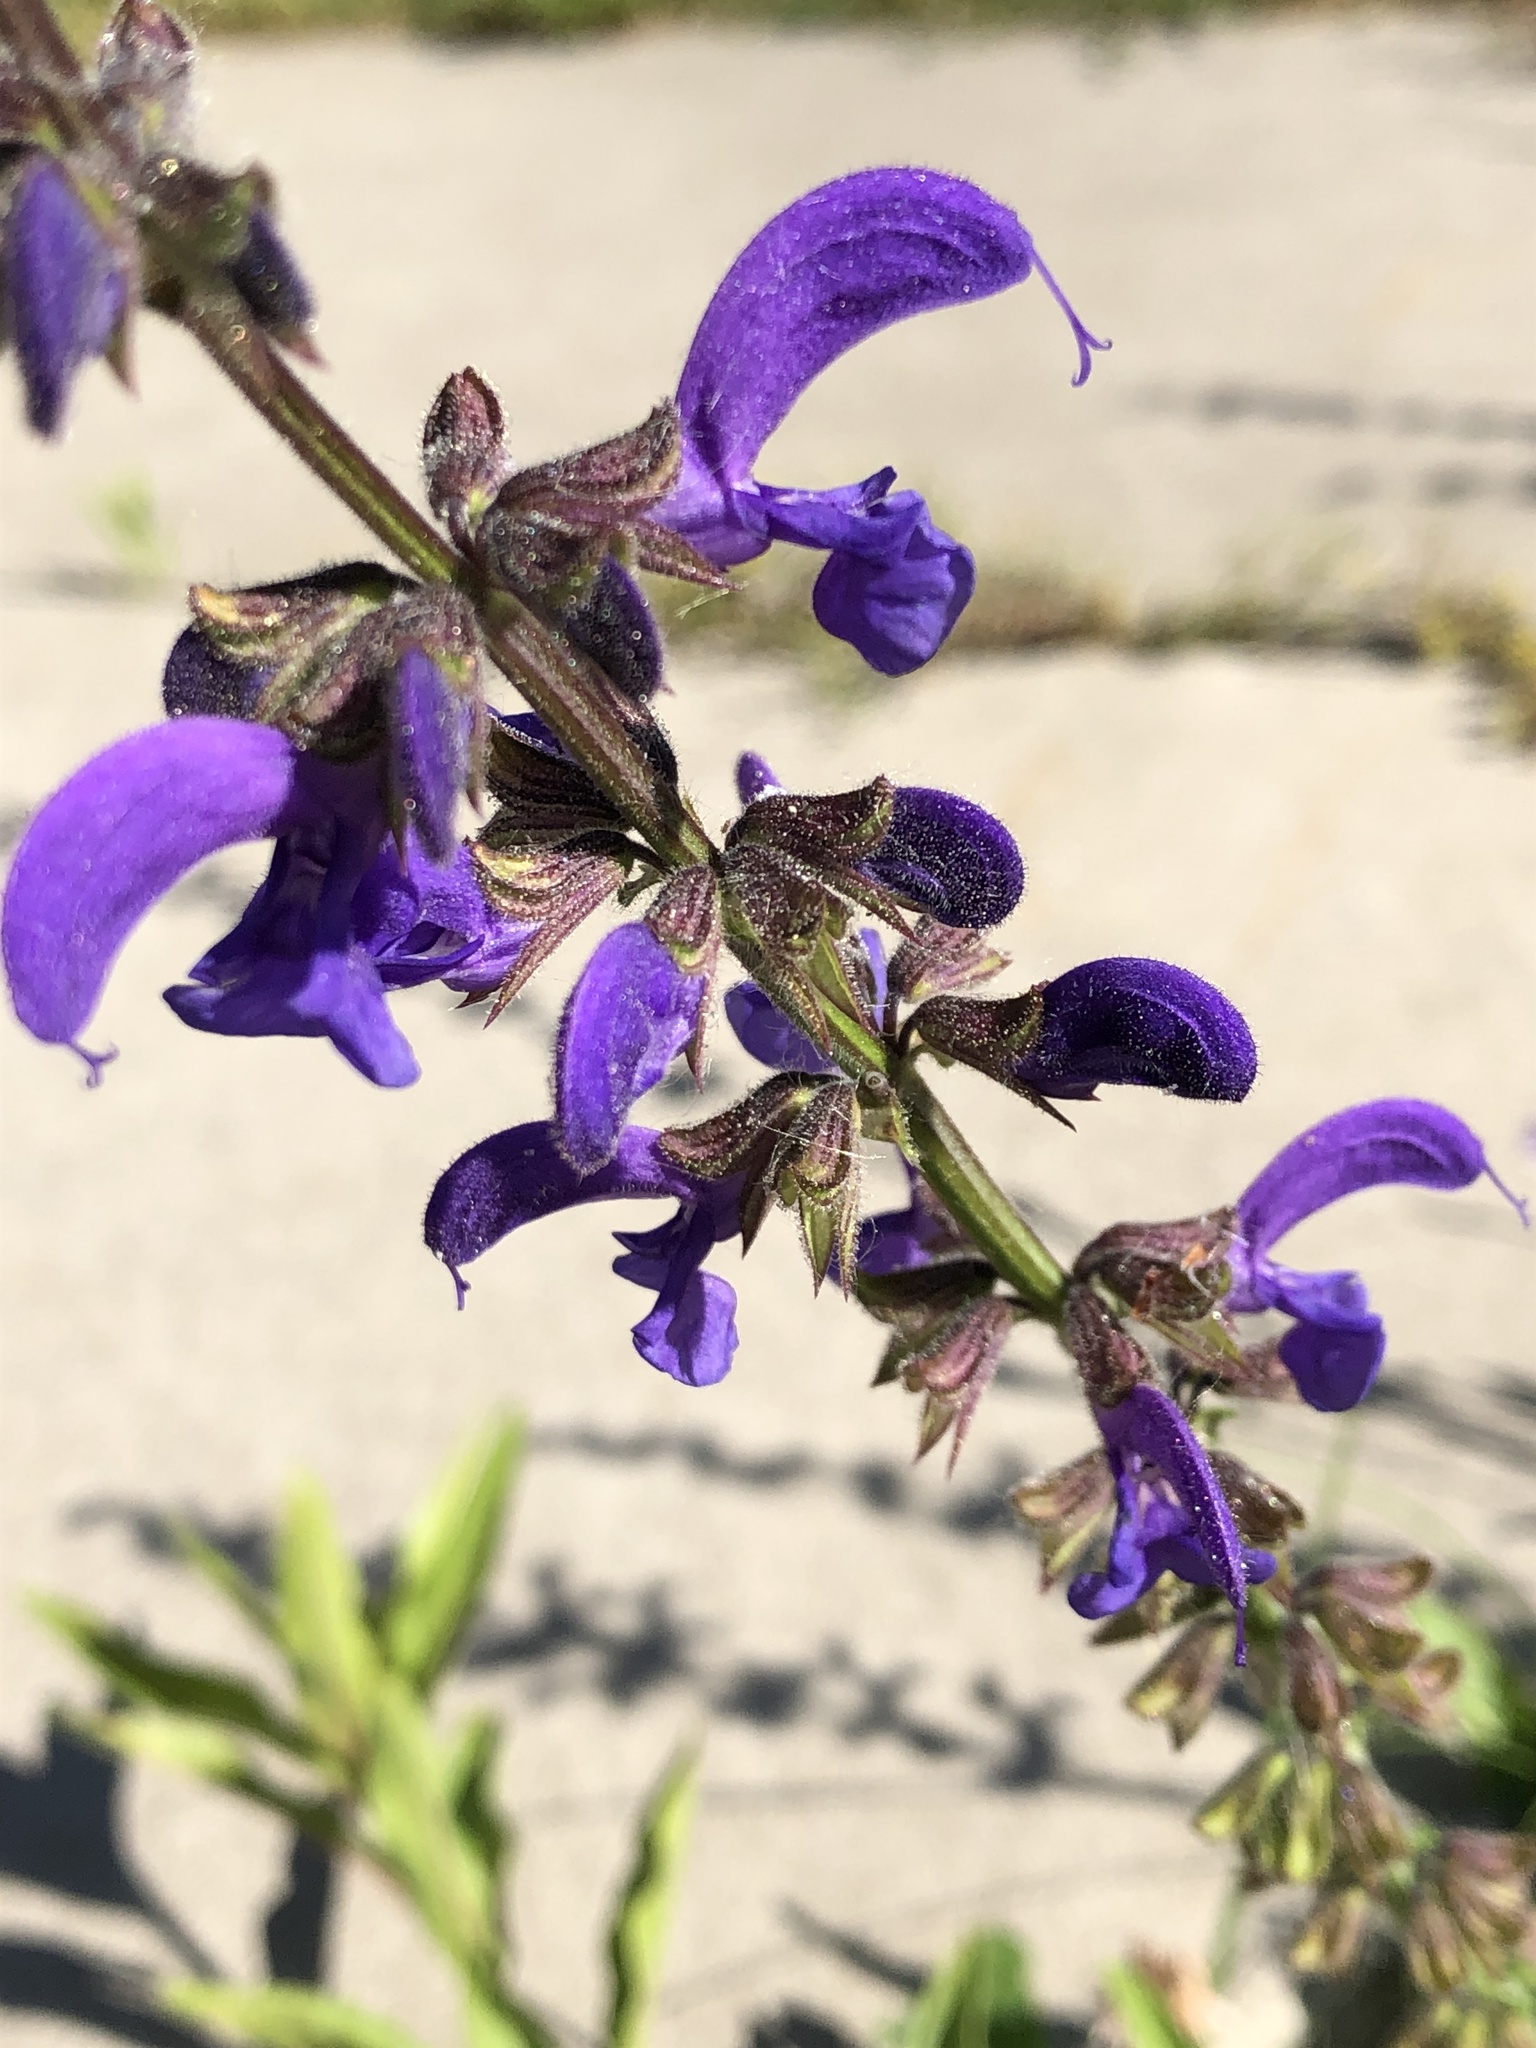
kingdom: Plantae
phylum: Tracheophyta
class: Magnoliopsida
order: Lamiales
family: Lamiaceae
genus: Salvia
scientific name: Salvia pratensis
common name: Meadow sage
